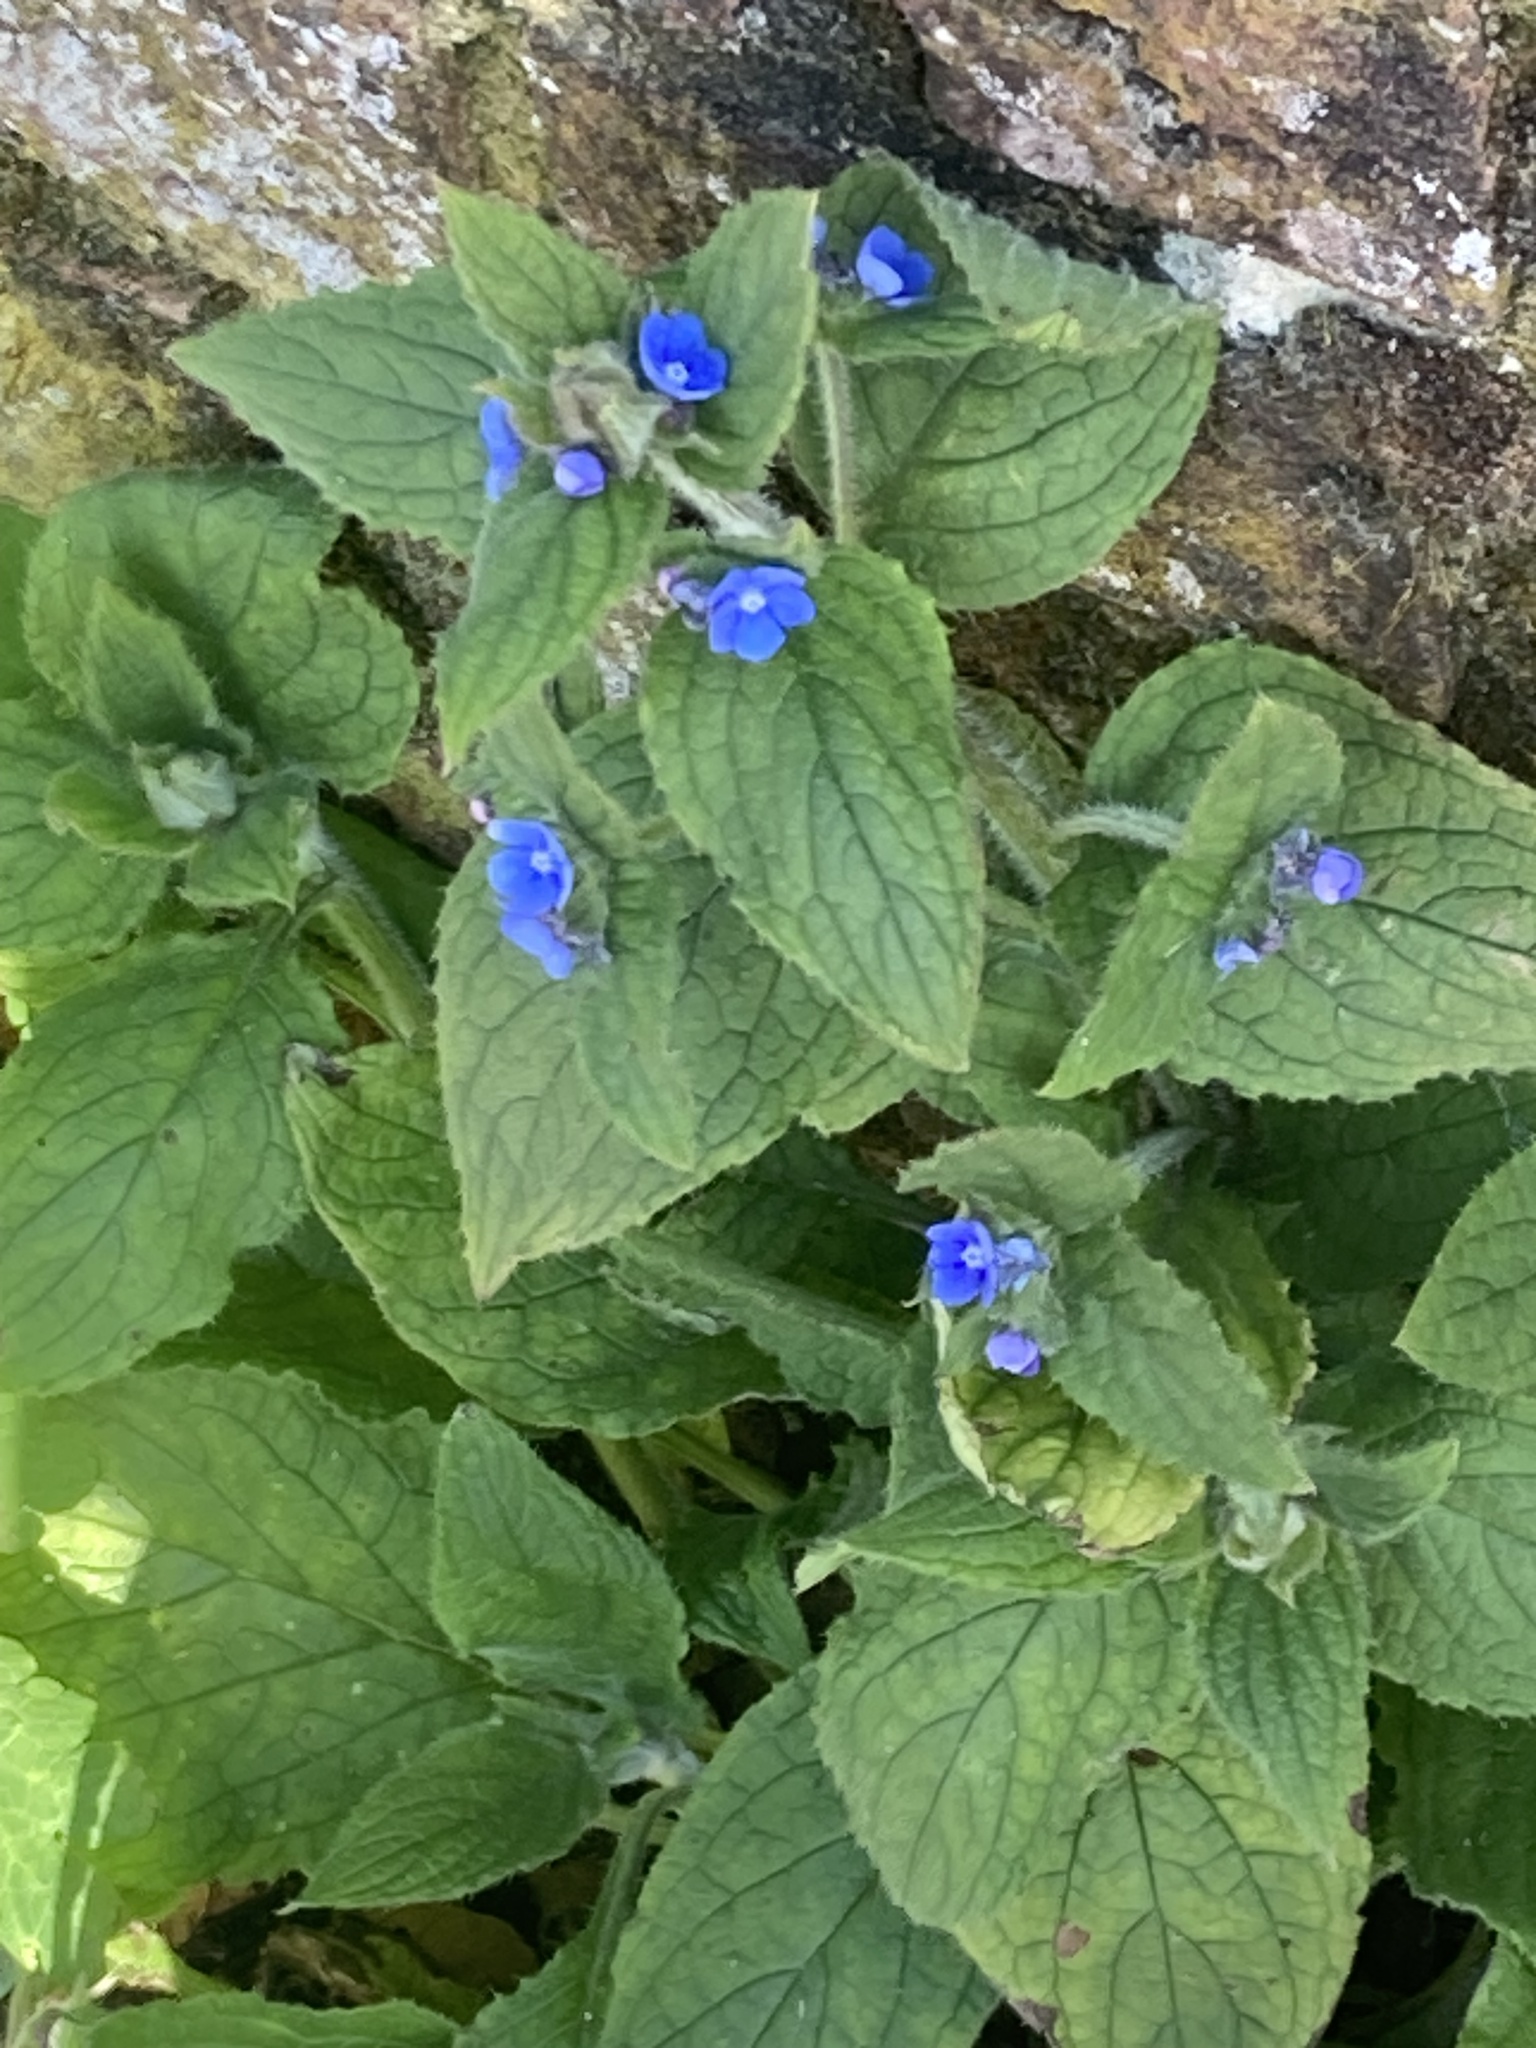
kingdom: Plantae
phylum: Tracheophyta
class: Magnoliopsida
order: Boraginales
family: Boraginaceae
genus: Pentaglottis
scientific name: Pentaglottis sempervirens
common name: Green alkanet
